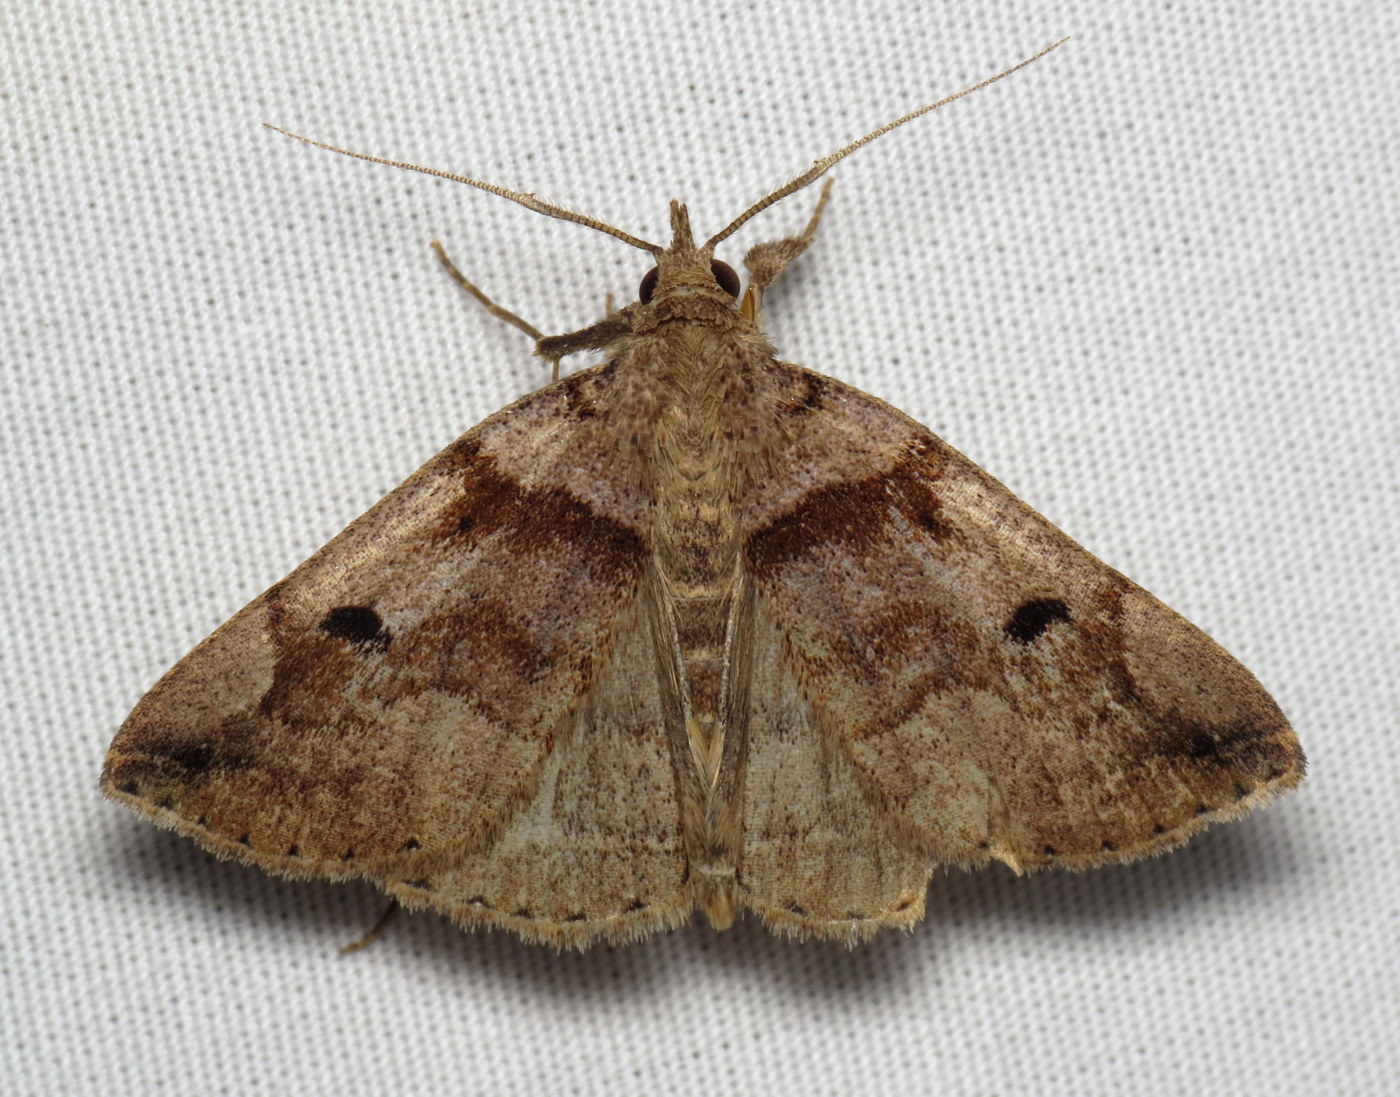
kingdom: Animalia
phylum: Arthropoda
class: Insecta
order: Lepidoptera
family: Erebidae
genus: Zanclognatha
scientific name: Zanclognatha laevigata
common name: Variable fan-foot
